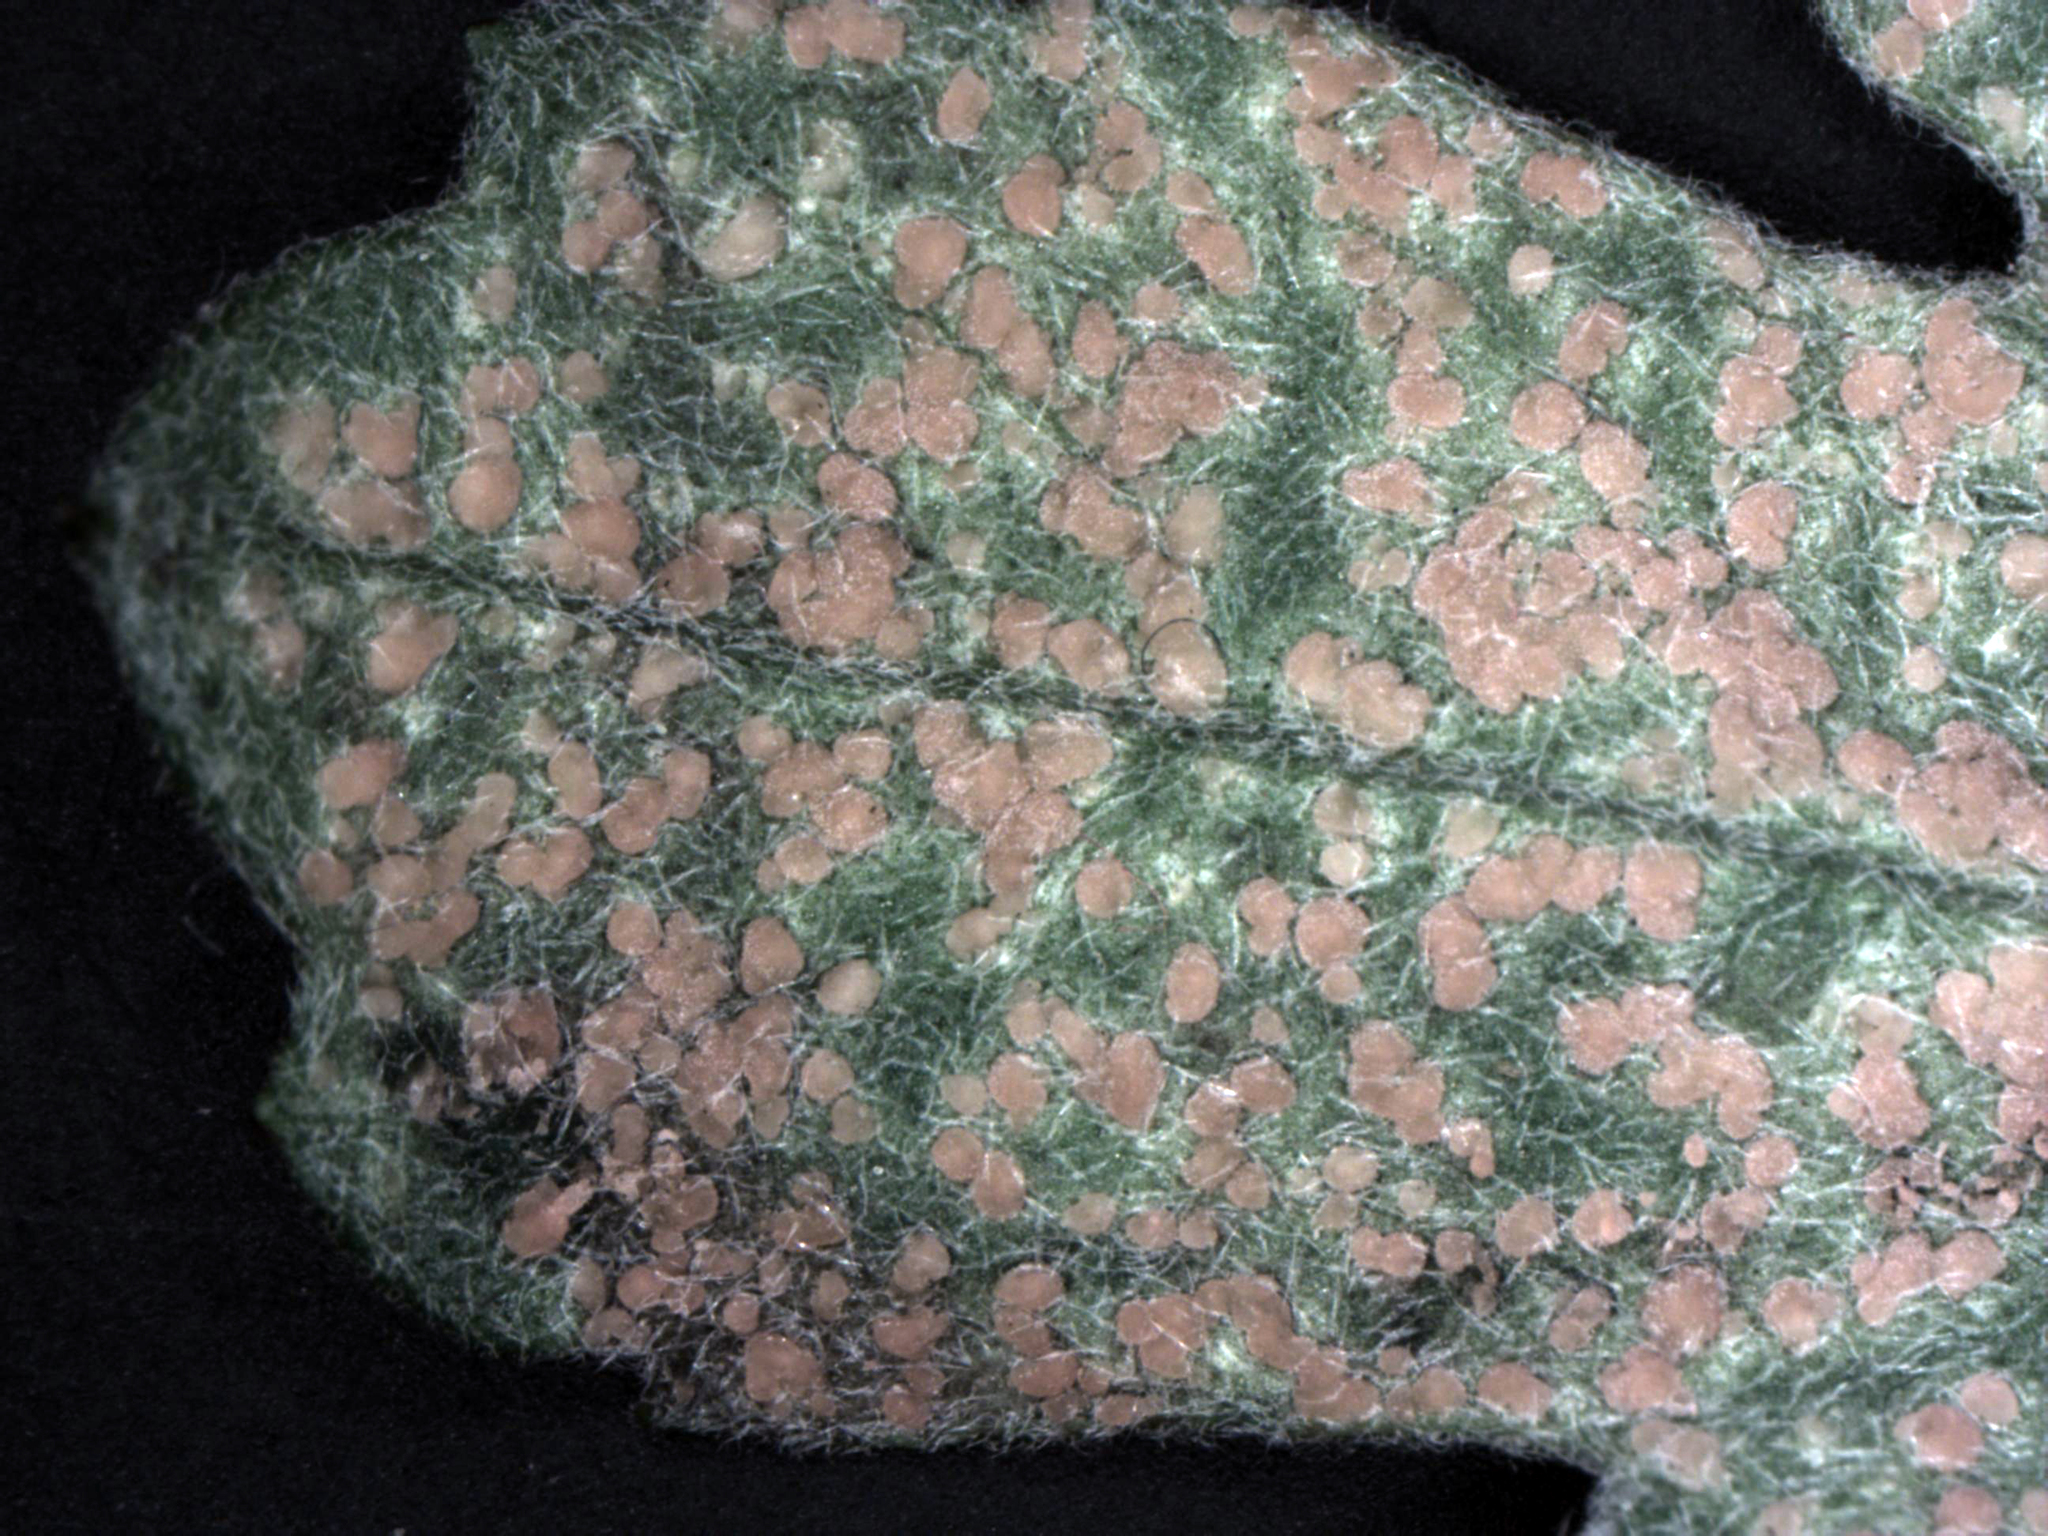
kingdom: Fungi
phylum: Basidiomycota
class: Pucciniomycetes
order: Pucciniales
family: Pucciniaceae
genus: Puccinia
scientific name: Puccinia horiana
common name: Chrysanthemum white rust
